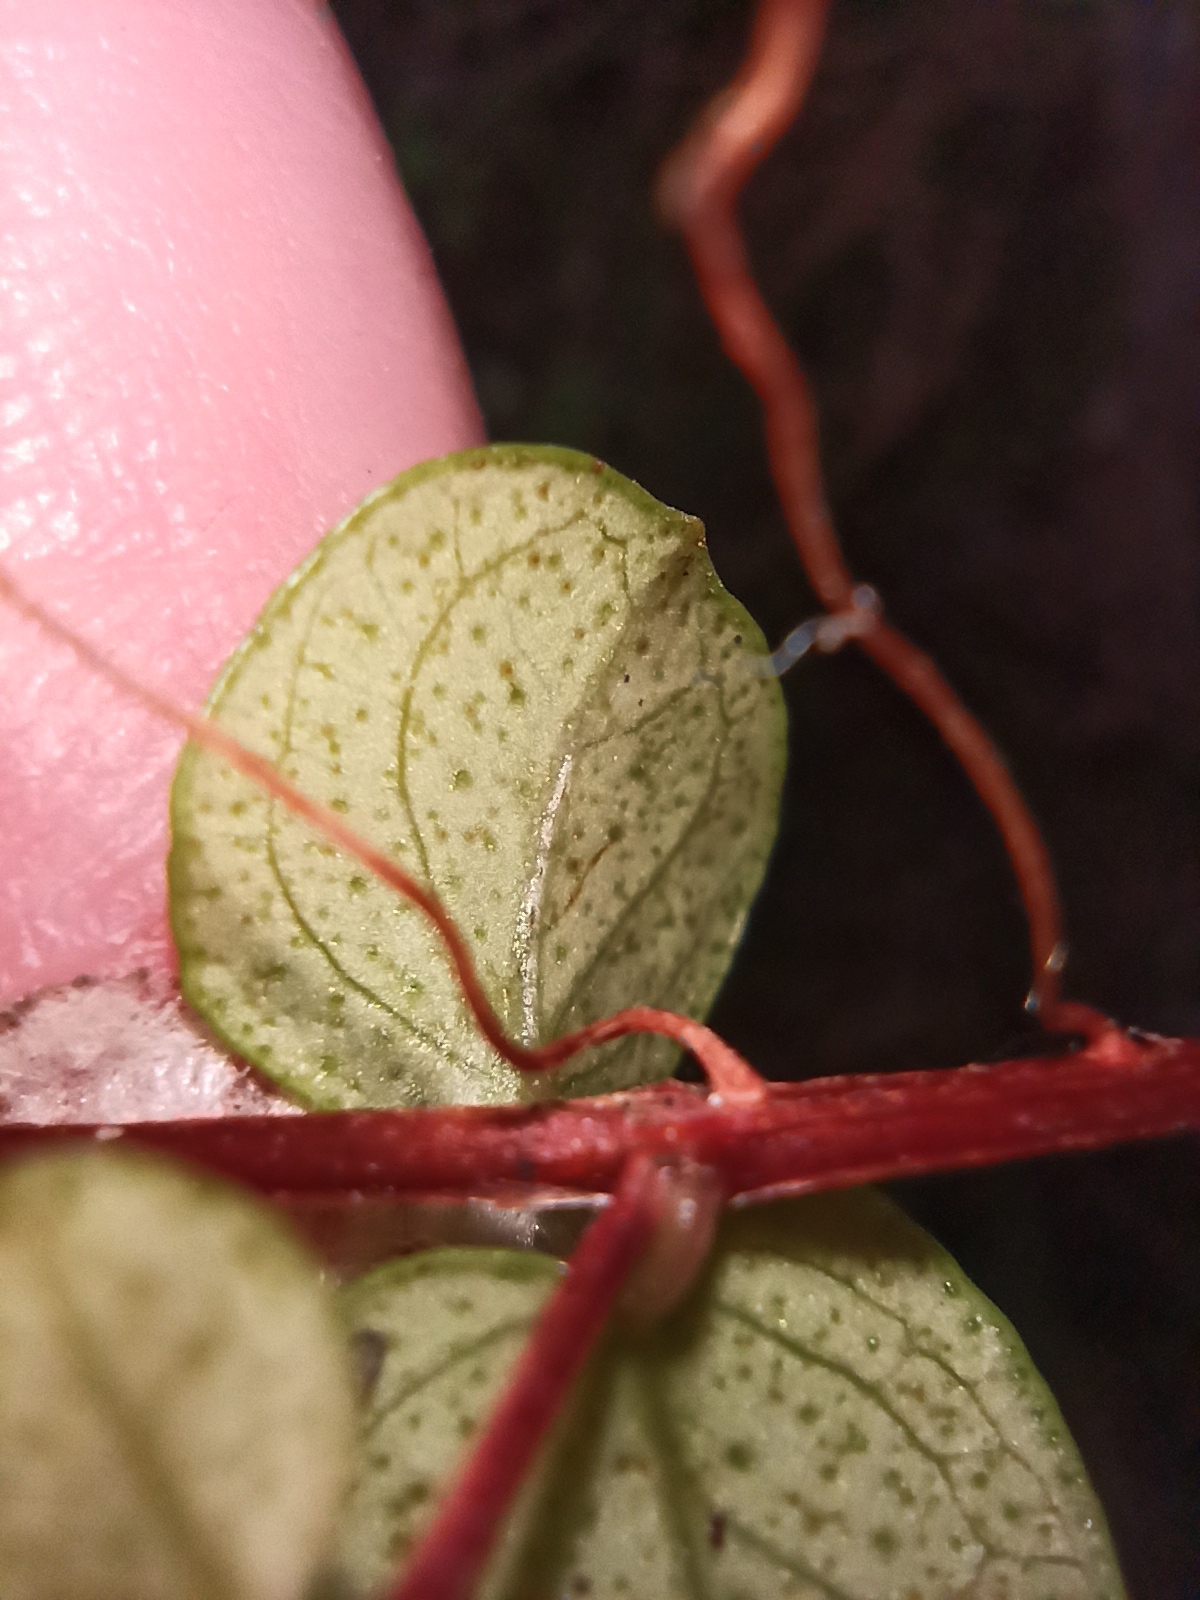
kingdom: Plantae
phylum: Tracheophyta
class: Magnoliopsida
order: Myrtales
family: Myrtaceae
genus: Metrosideros
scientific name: Metrosideros perforata
